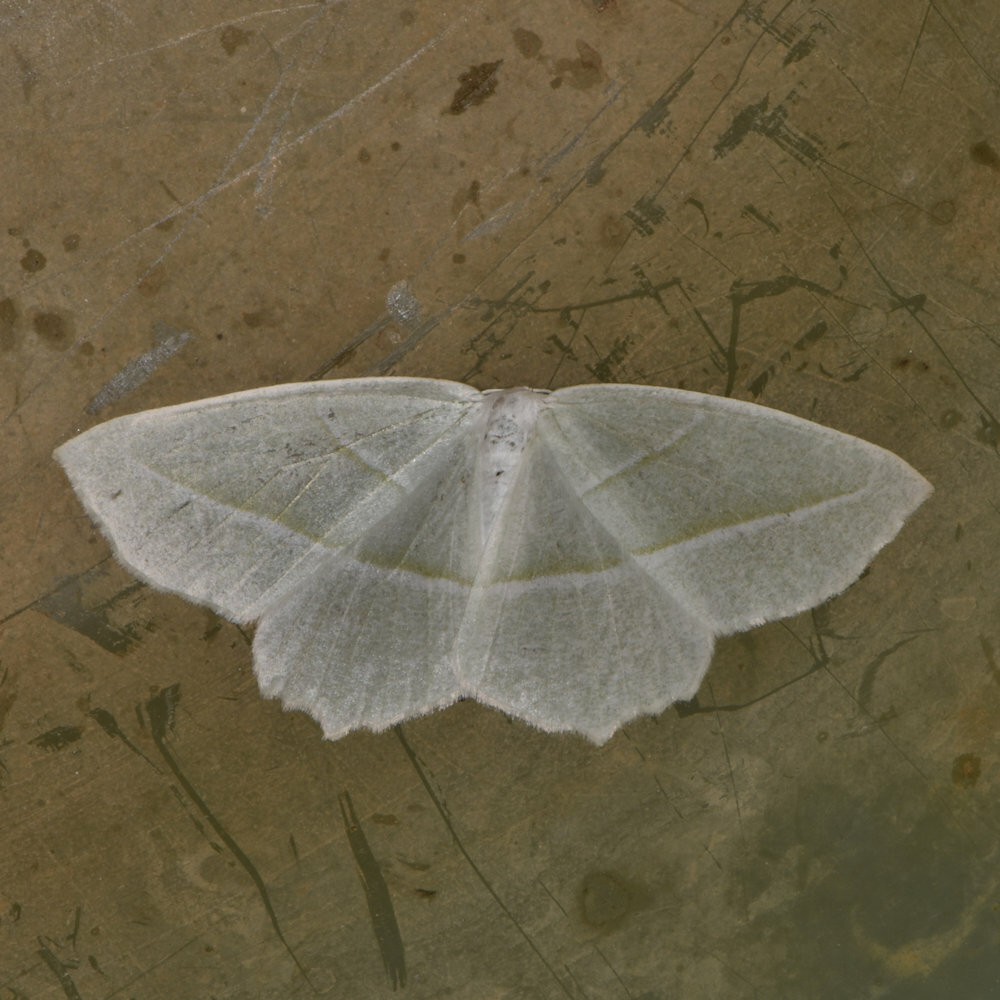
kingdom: Animalia
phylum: Arthropoda
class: Insecta
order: Lepidoptera
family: Geometridae
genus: Campaea
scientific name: Campaea perlata
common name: Fringed looper
